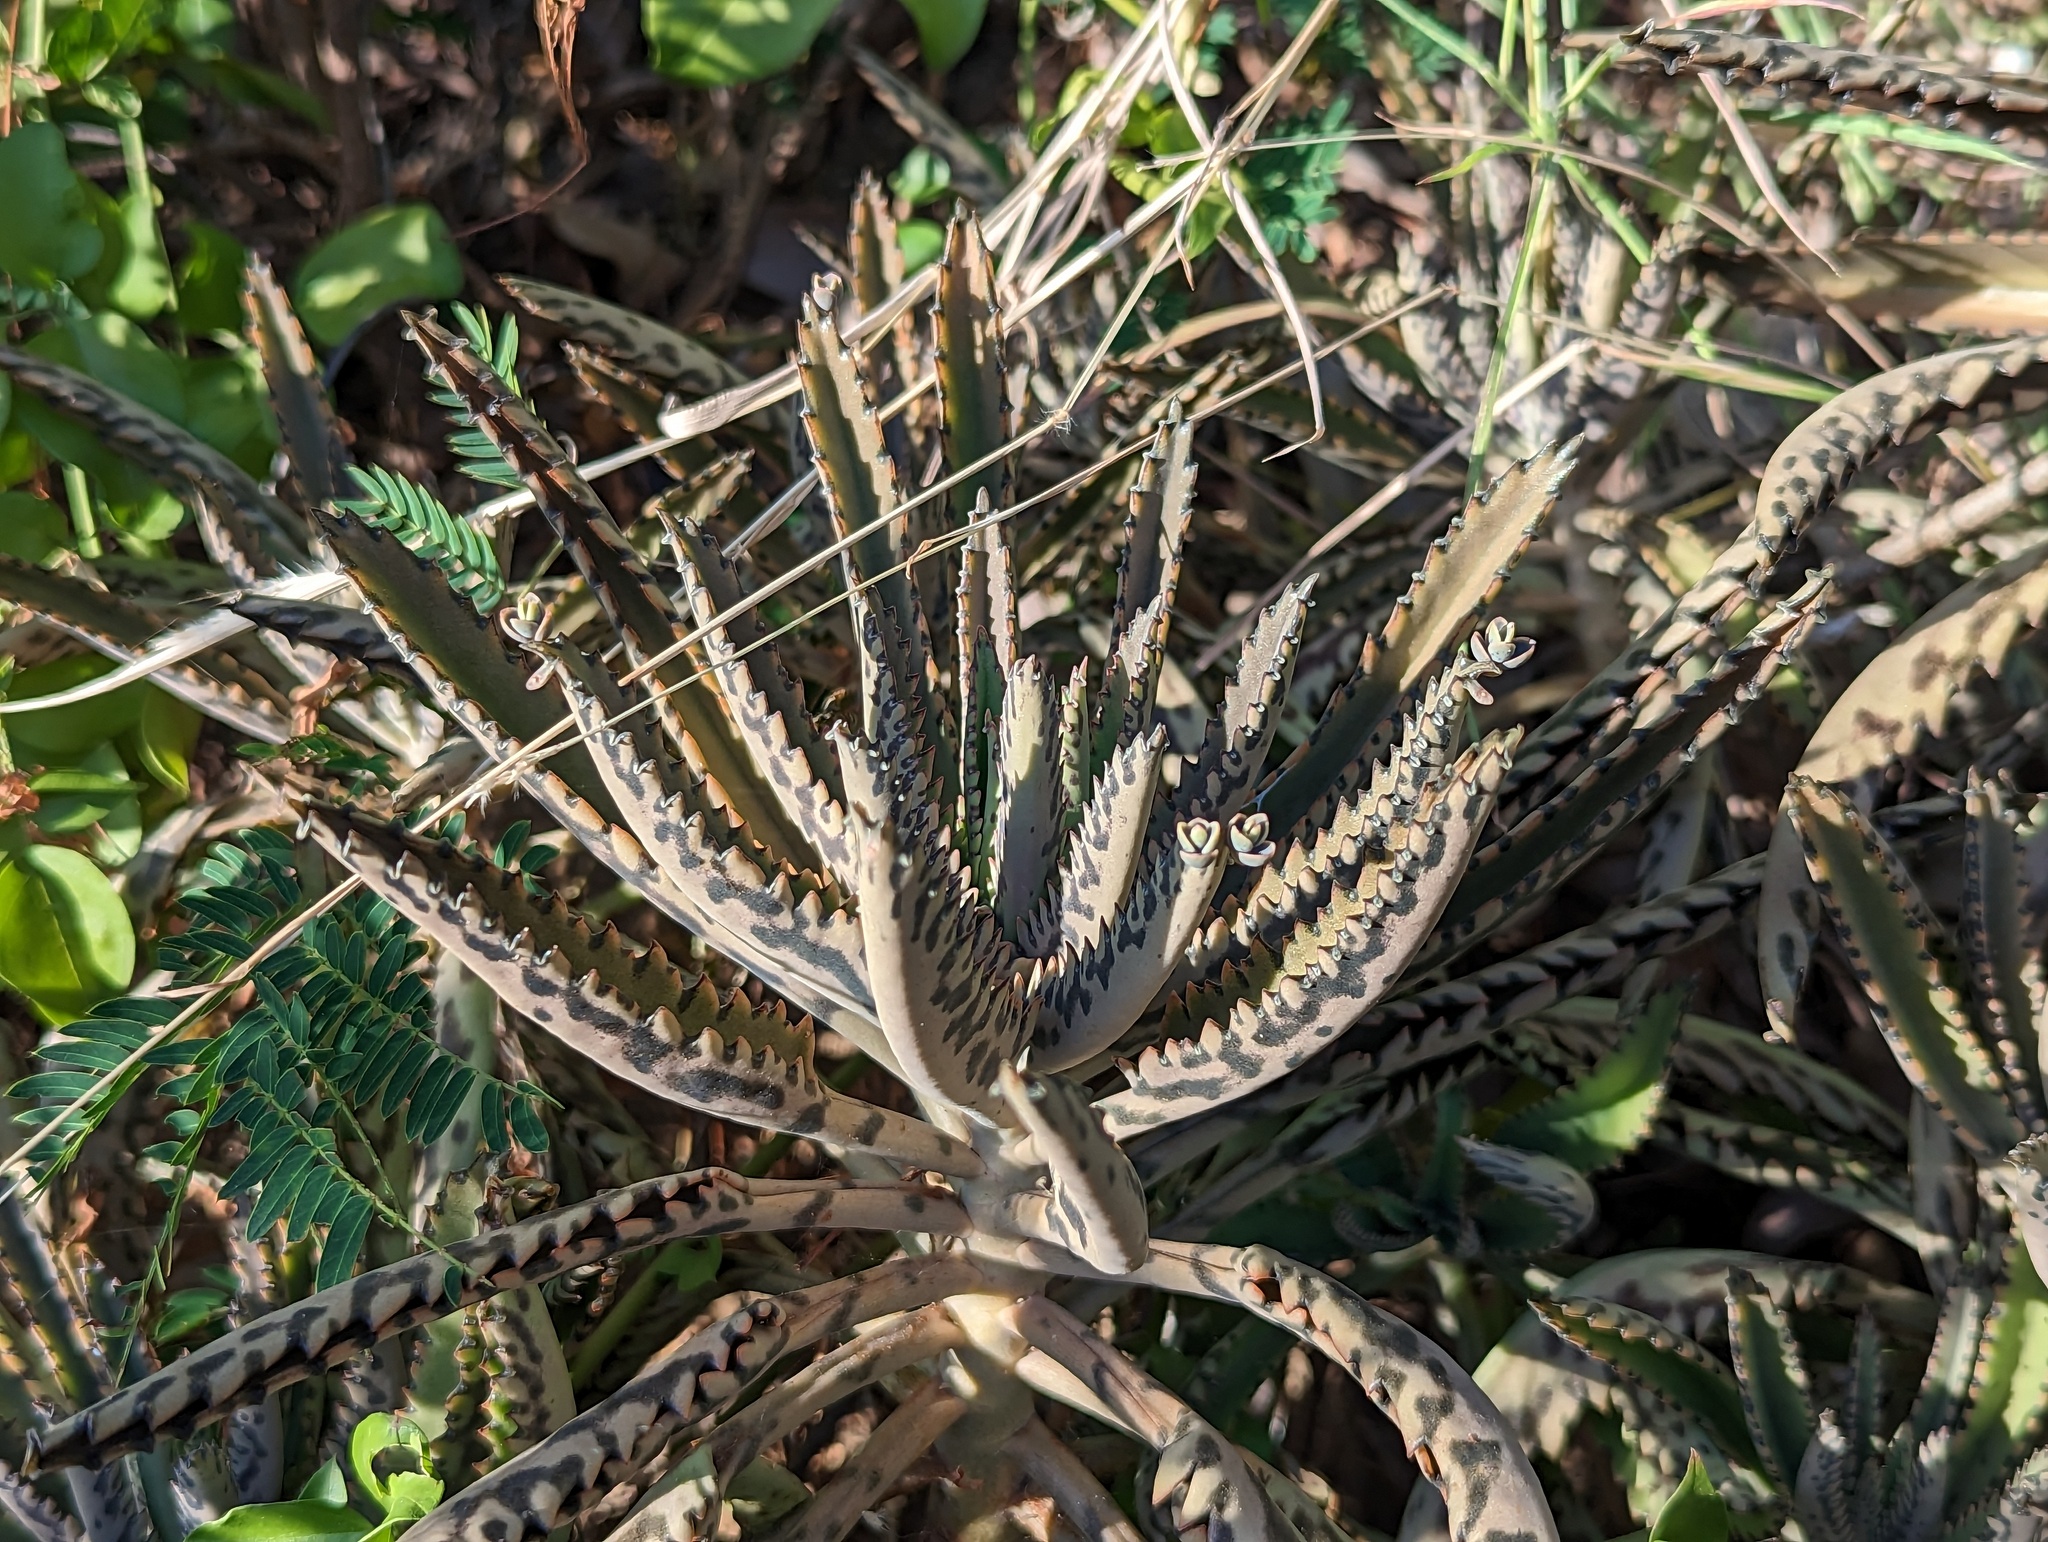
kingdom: Plantae
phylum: Tracheophyta
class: Magnoliopsida
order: Saxifragales
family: Crassulaceae
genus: Kalanchoe
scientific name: Kalanchoe houghtonii
